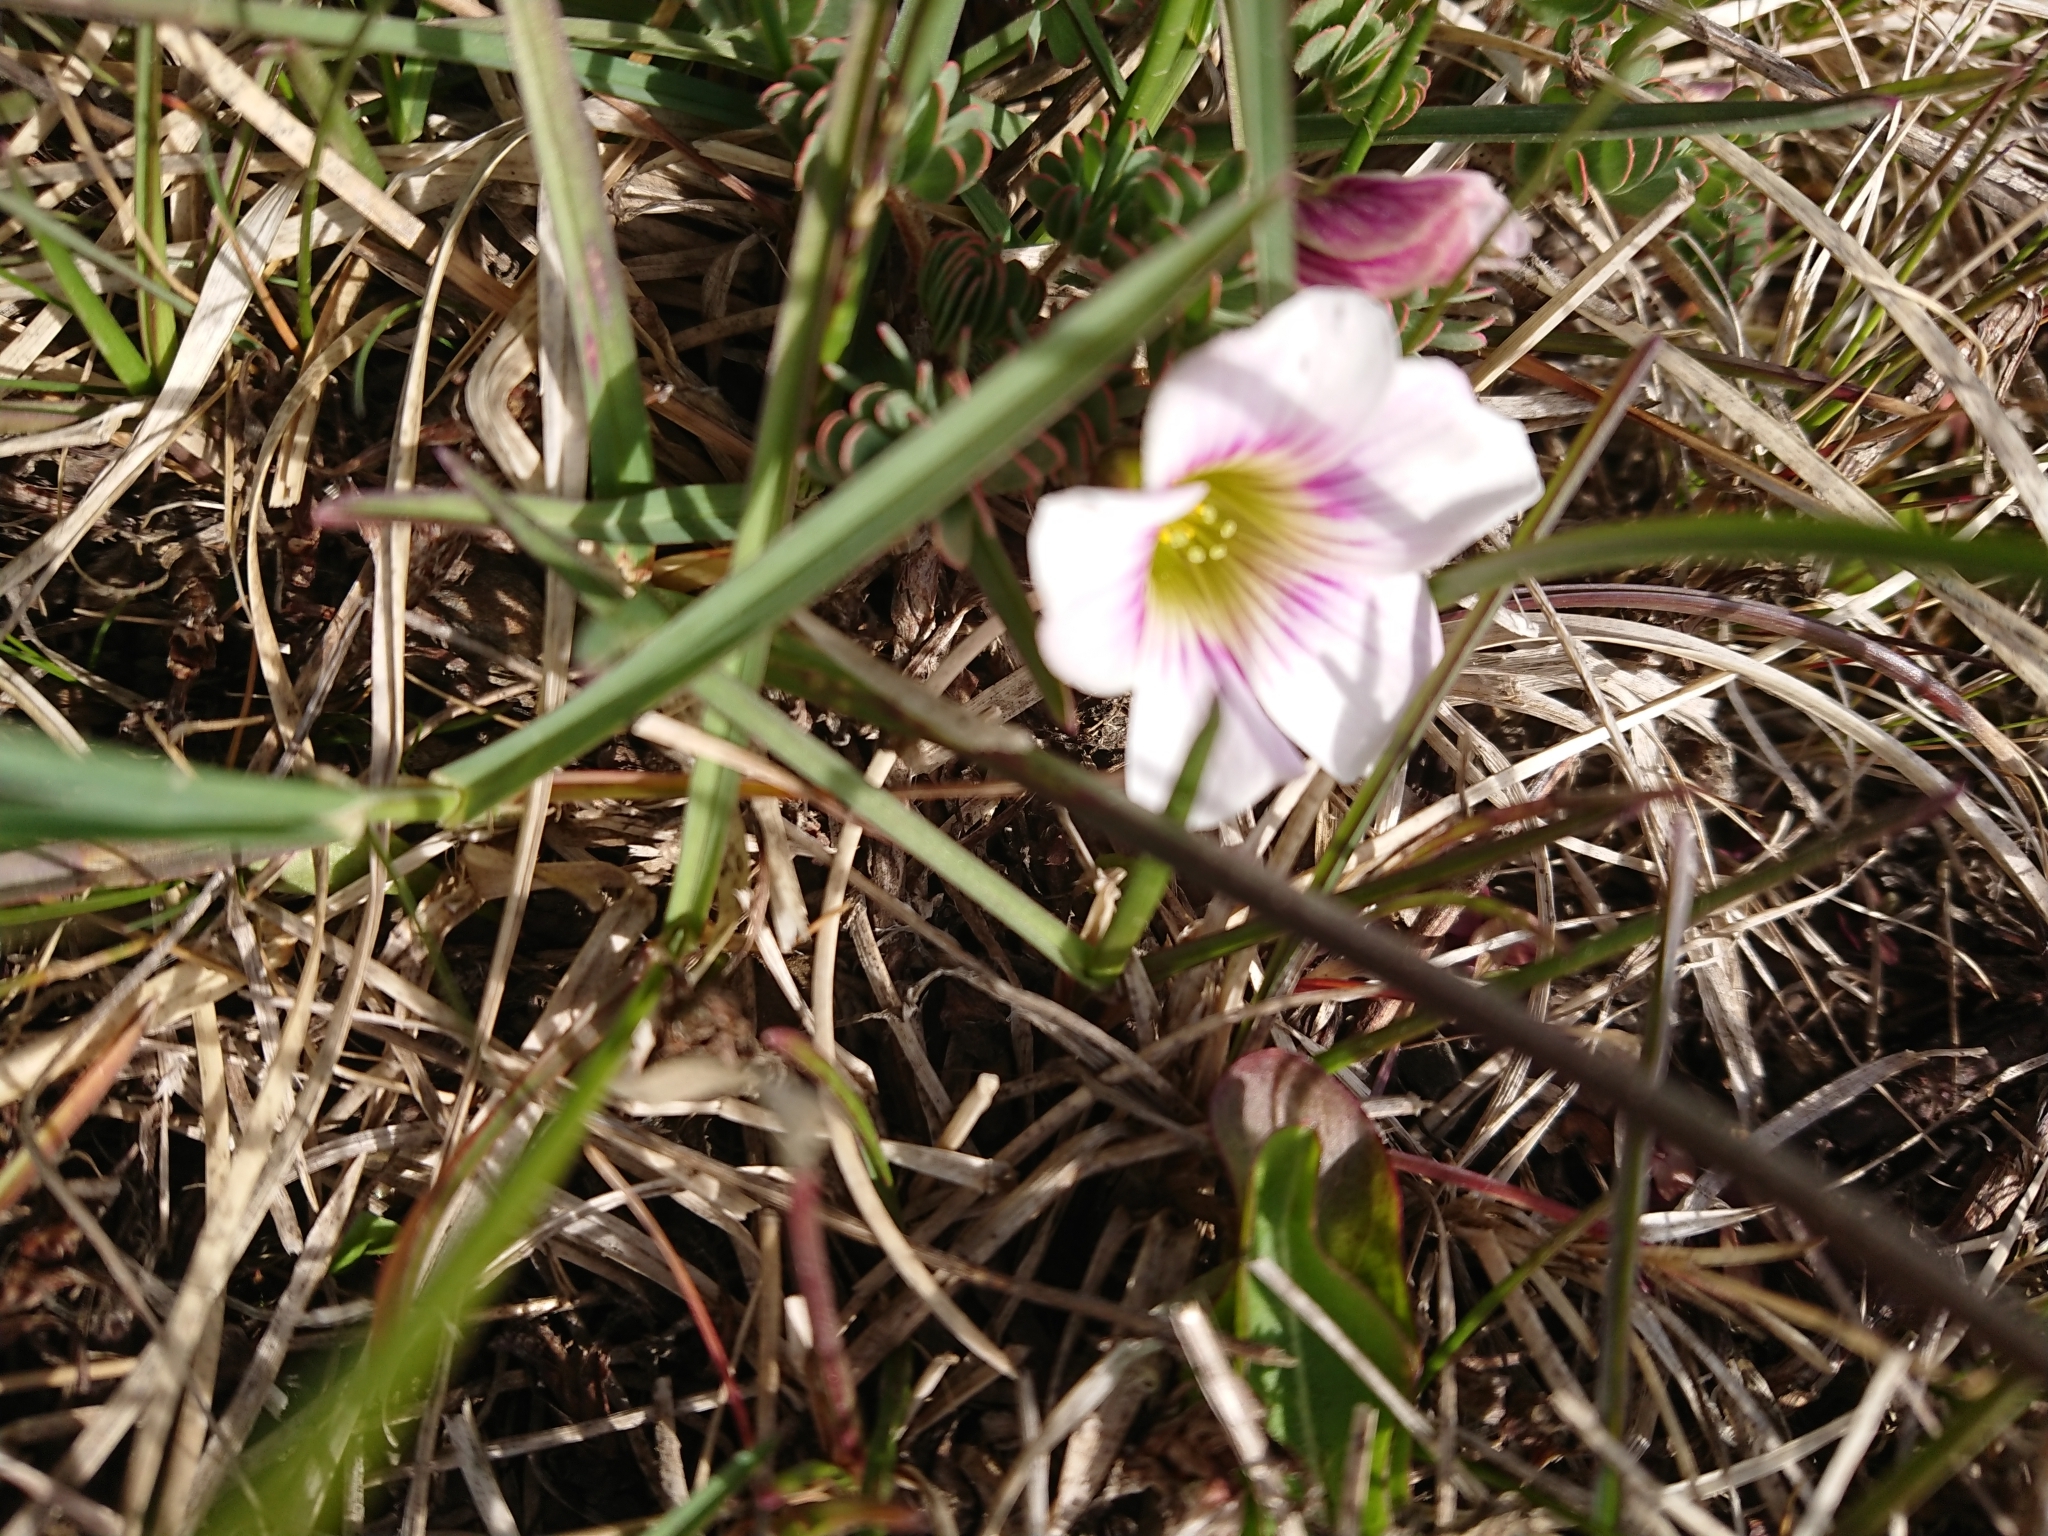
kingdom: Plantae
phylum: Tracheophyta
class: Magnoliopsida
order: Oxalidales
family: Oxalidaceae
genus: Oxalis
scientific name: Oxalis enneaphylla
